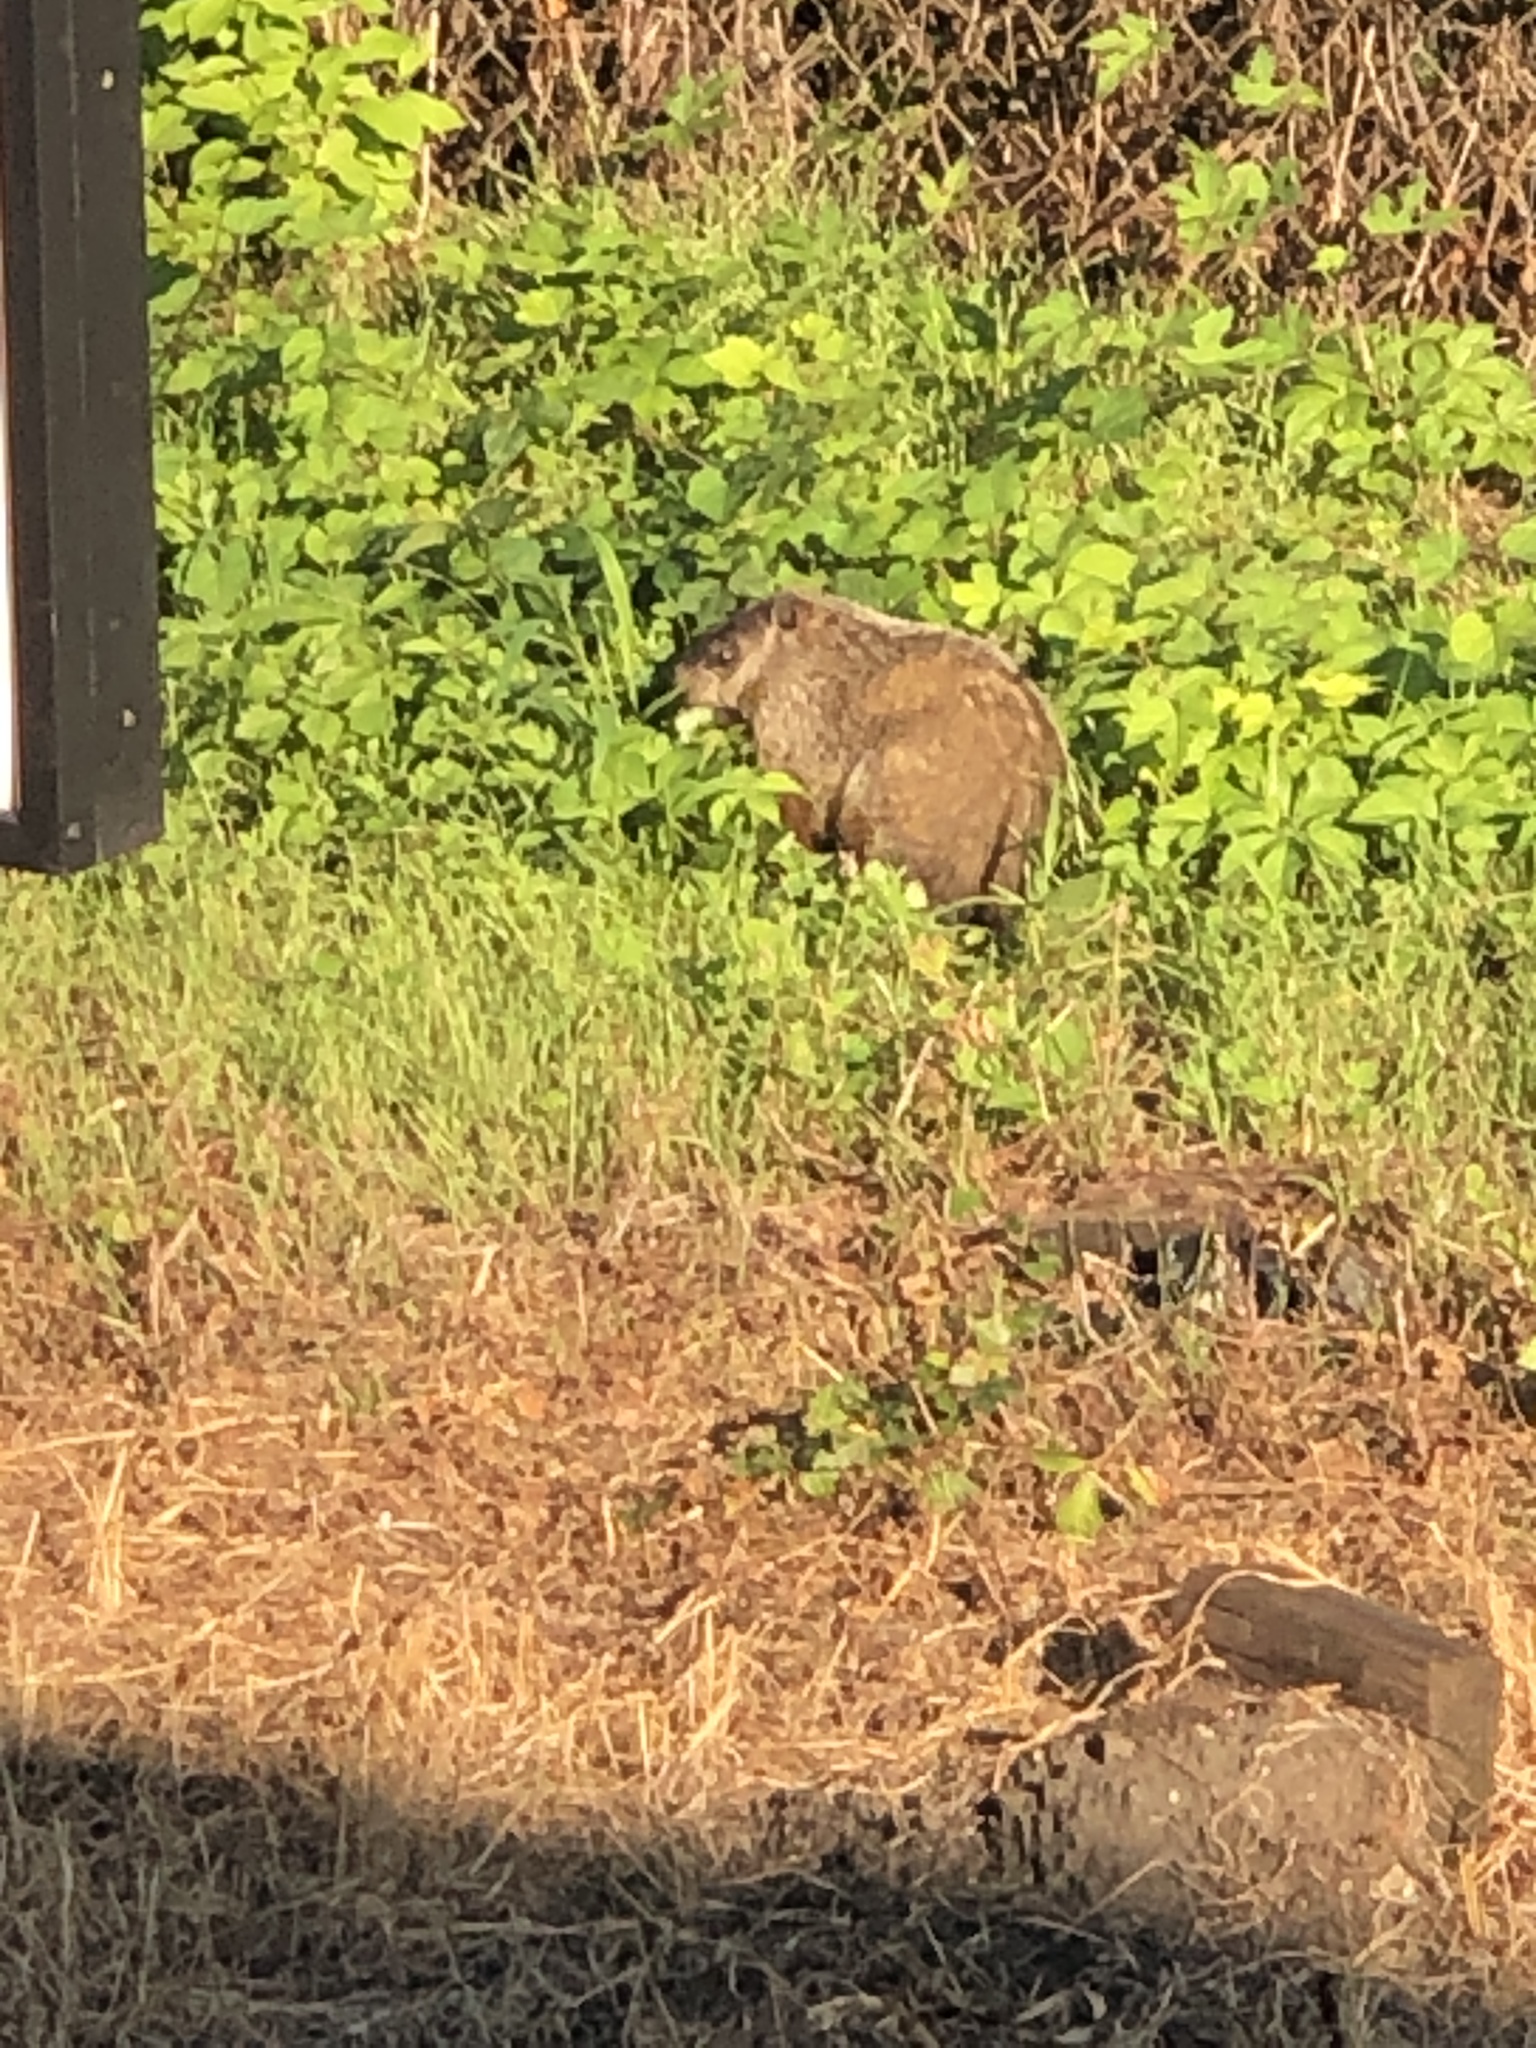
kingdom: Animalia
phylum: Chordata
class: Mammalia
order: Rodentia
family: Sciuridae
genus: Marmota
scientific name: Marmota monax
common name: Groundhog
